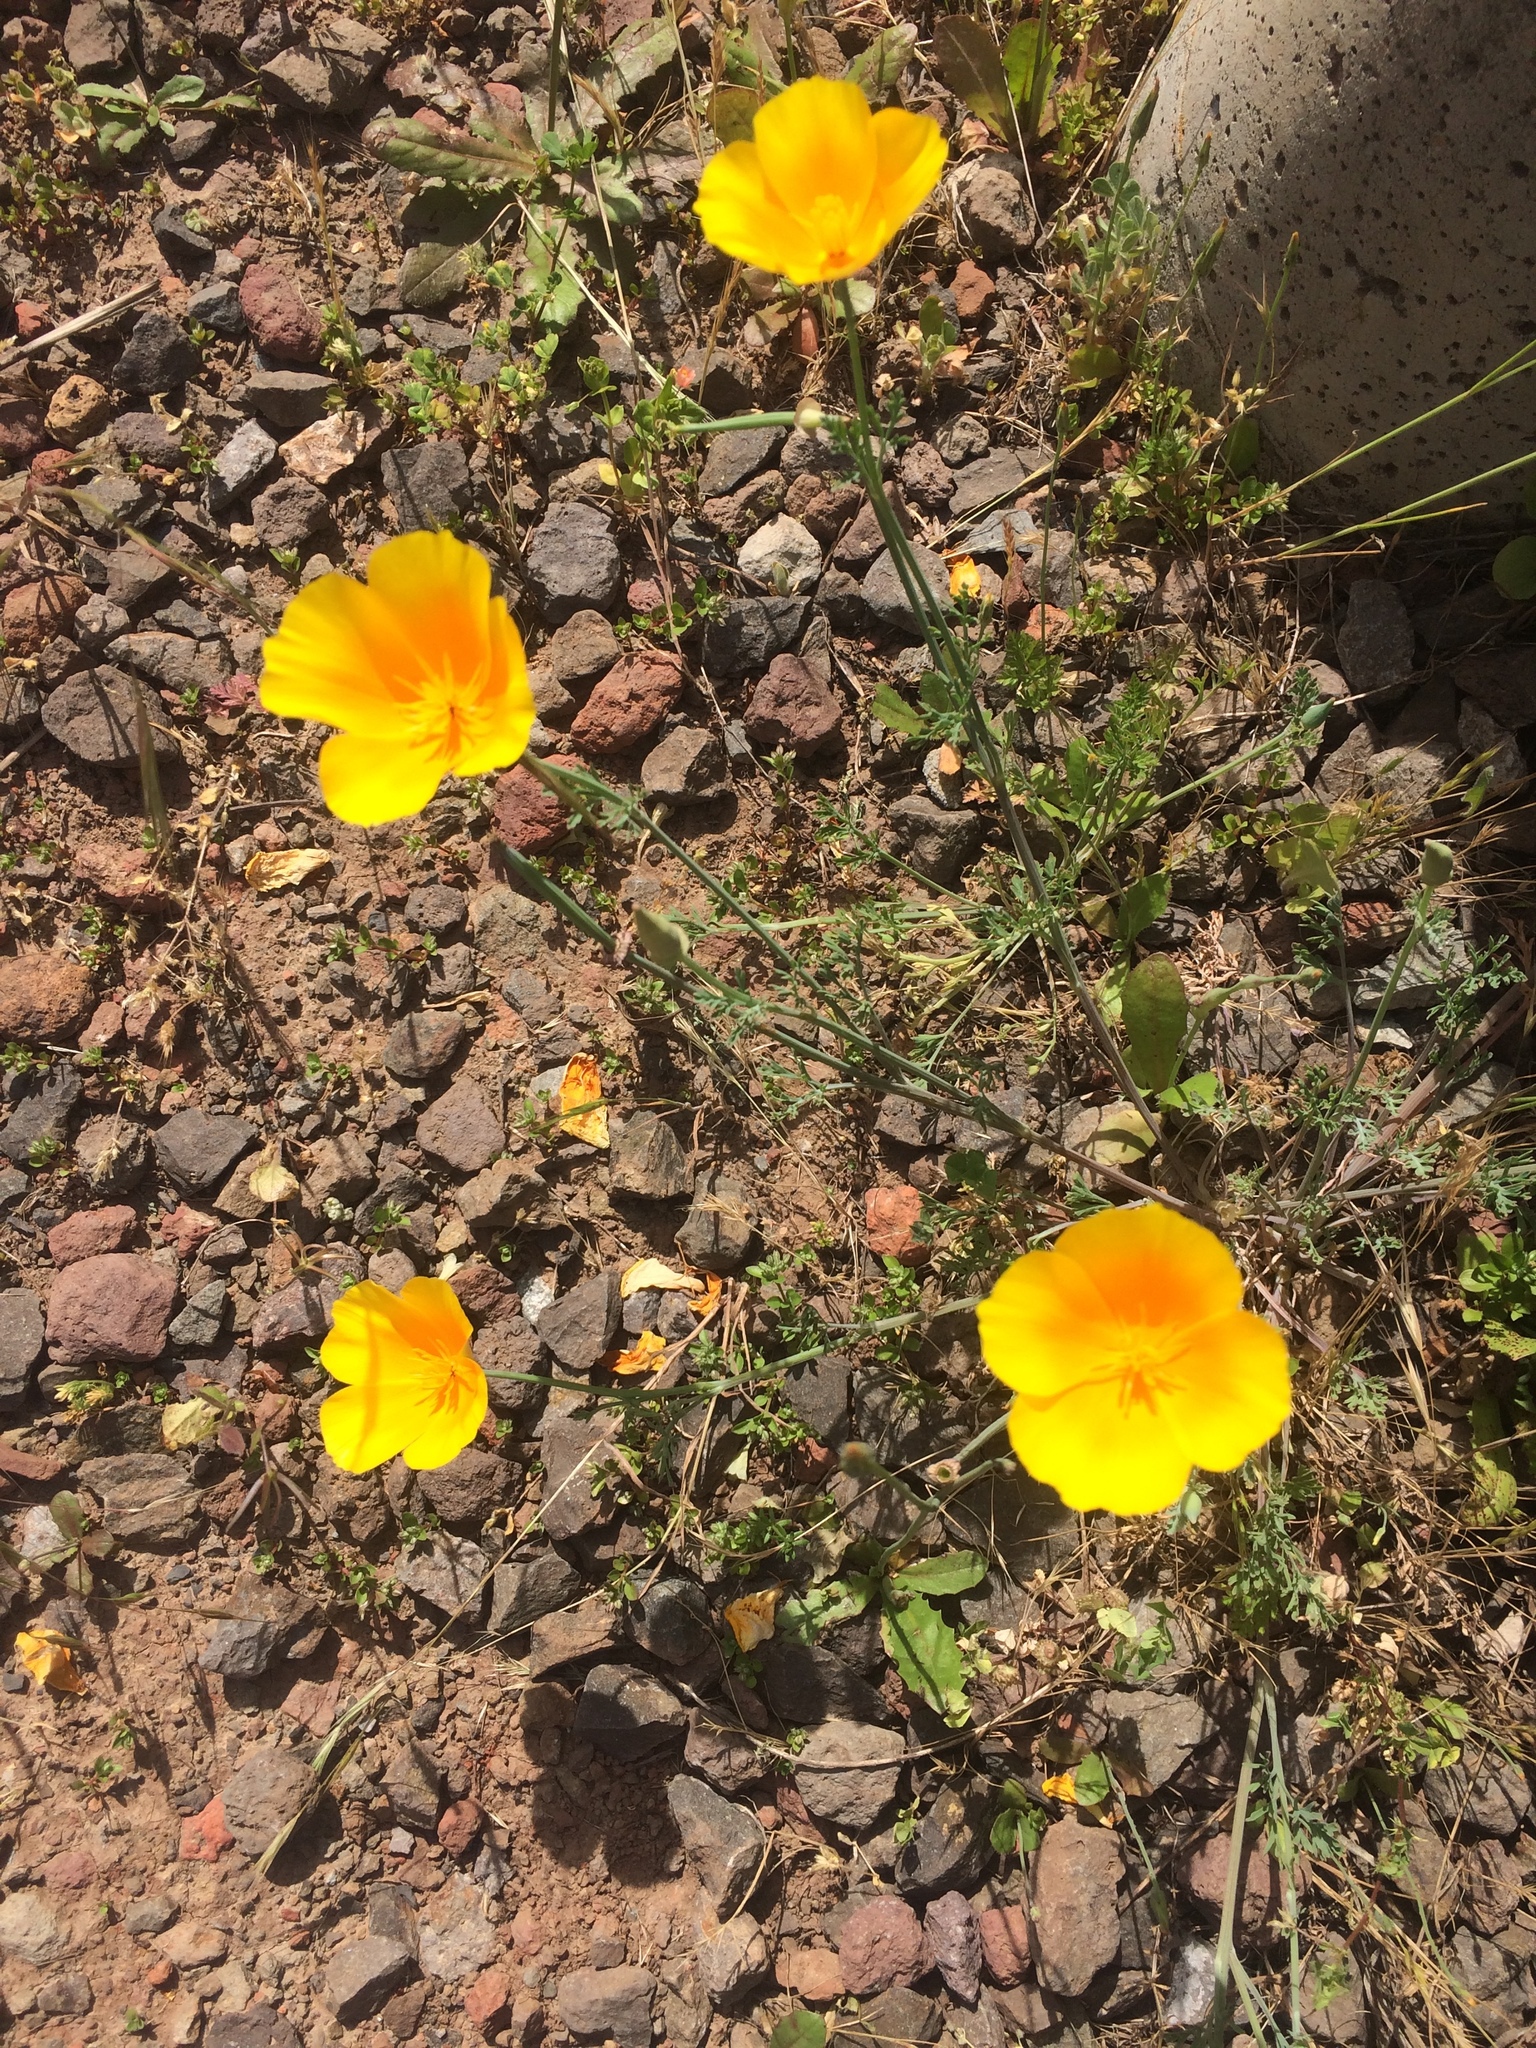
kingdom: Plantae
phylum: Tracheophyta
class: Magnoliopsida
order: Ranunculales
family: Papaveraceae
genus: Eschscholzia
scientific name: Eschscholzia californica
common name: California poppy
